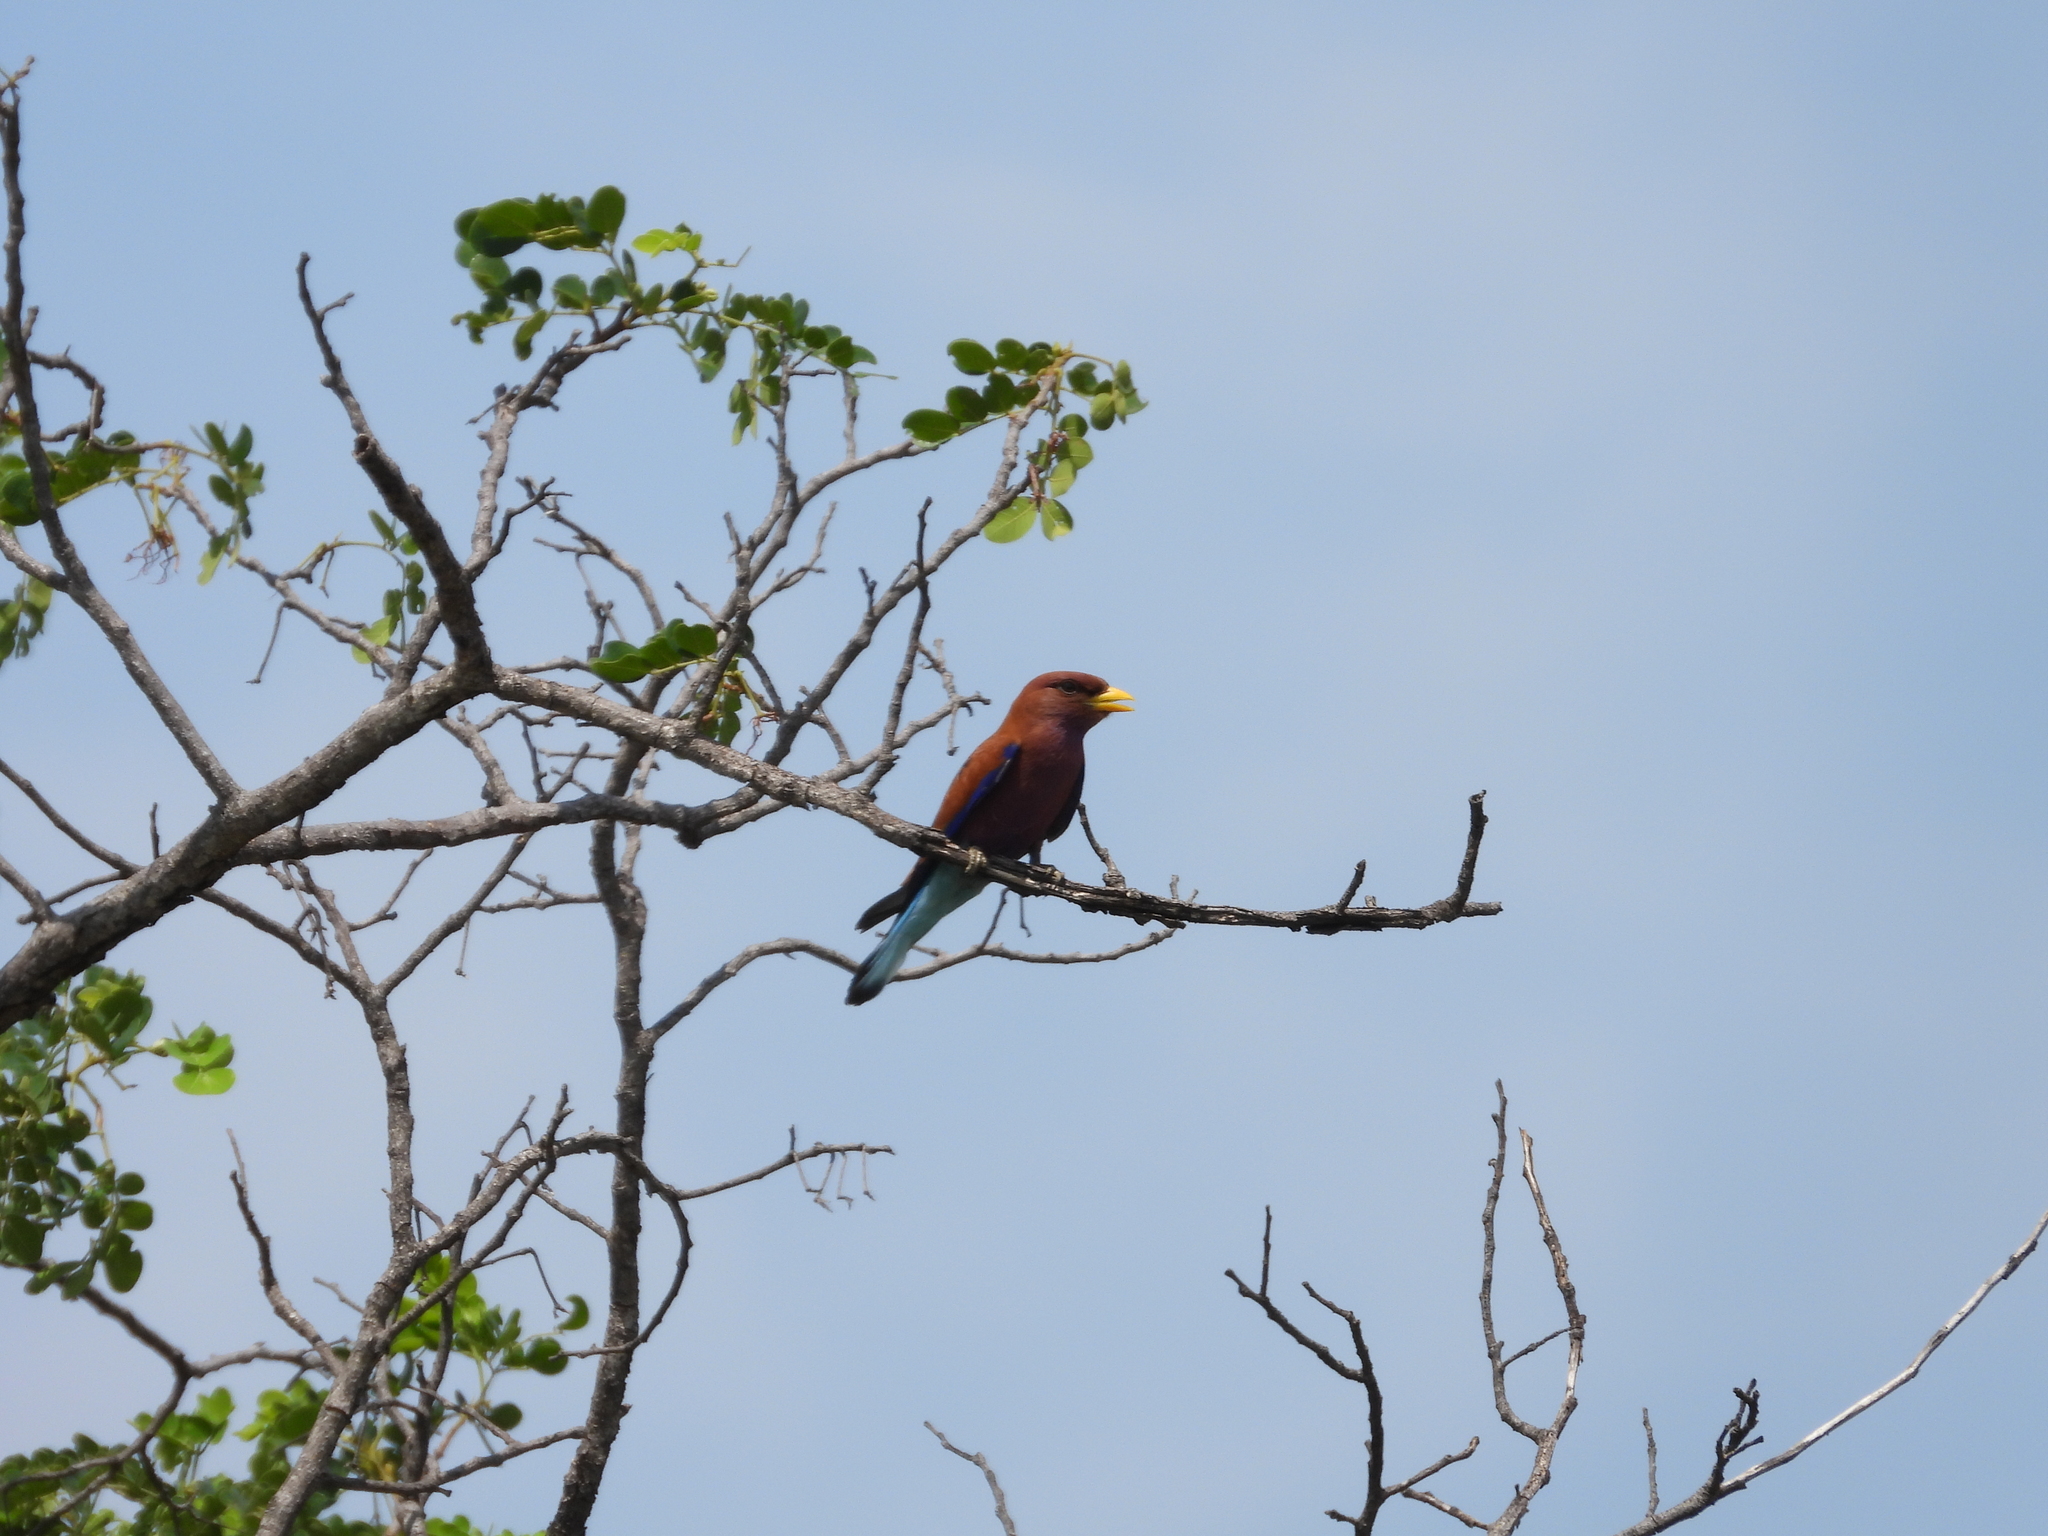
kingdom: Animalia
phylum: Chordata
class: Aves
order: Coraciiformes
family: Coraciidae
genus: Eurystomus
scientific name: Eurystomus glaucurus
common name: Broad-billed roller
